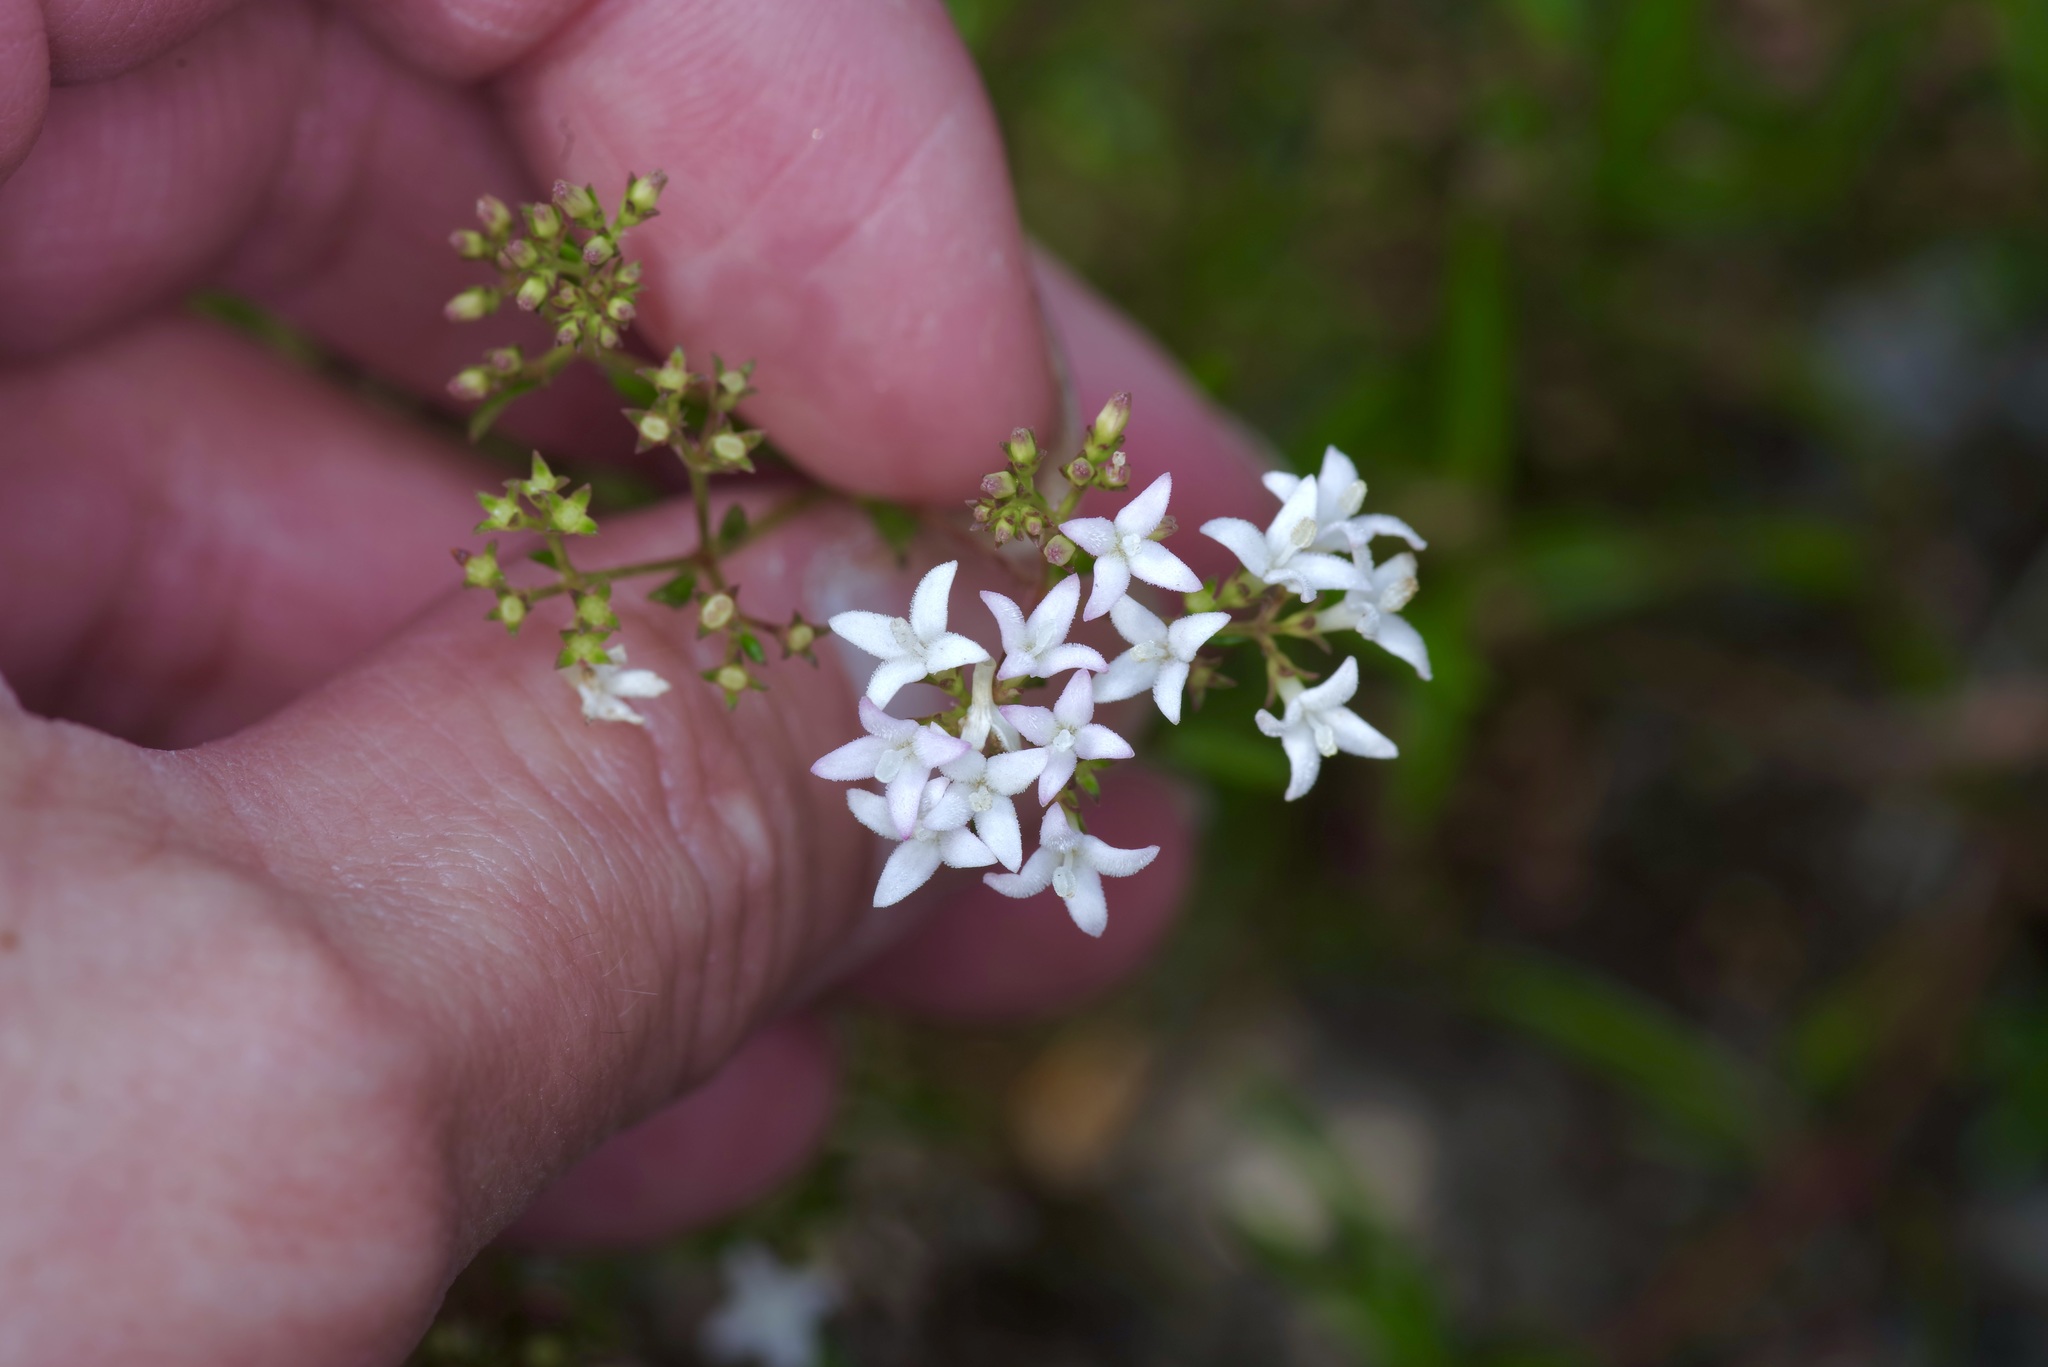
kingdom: Plantae
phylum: Tracheophyta
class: Magnoliopsida
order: Gentianales
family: Rubiaceae
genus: Stenaria
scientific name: Stenaria nigricans
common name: Diamondflowers
